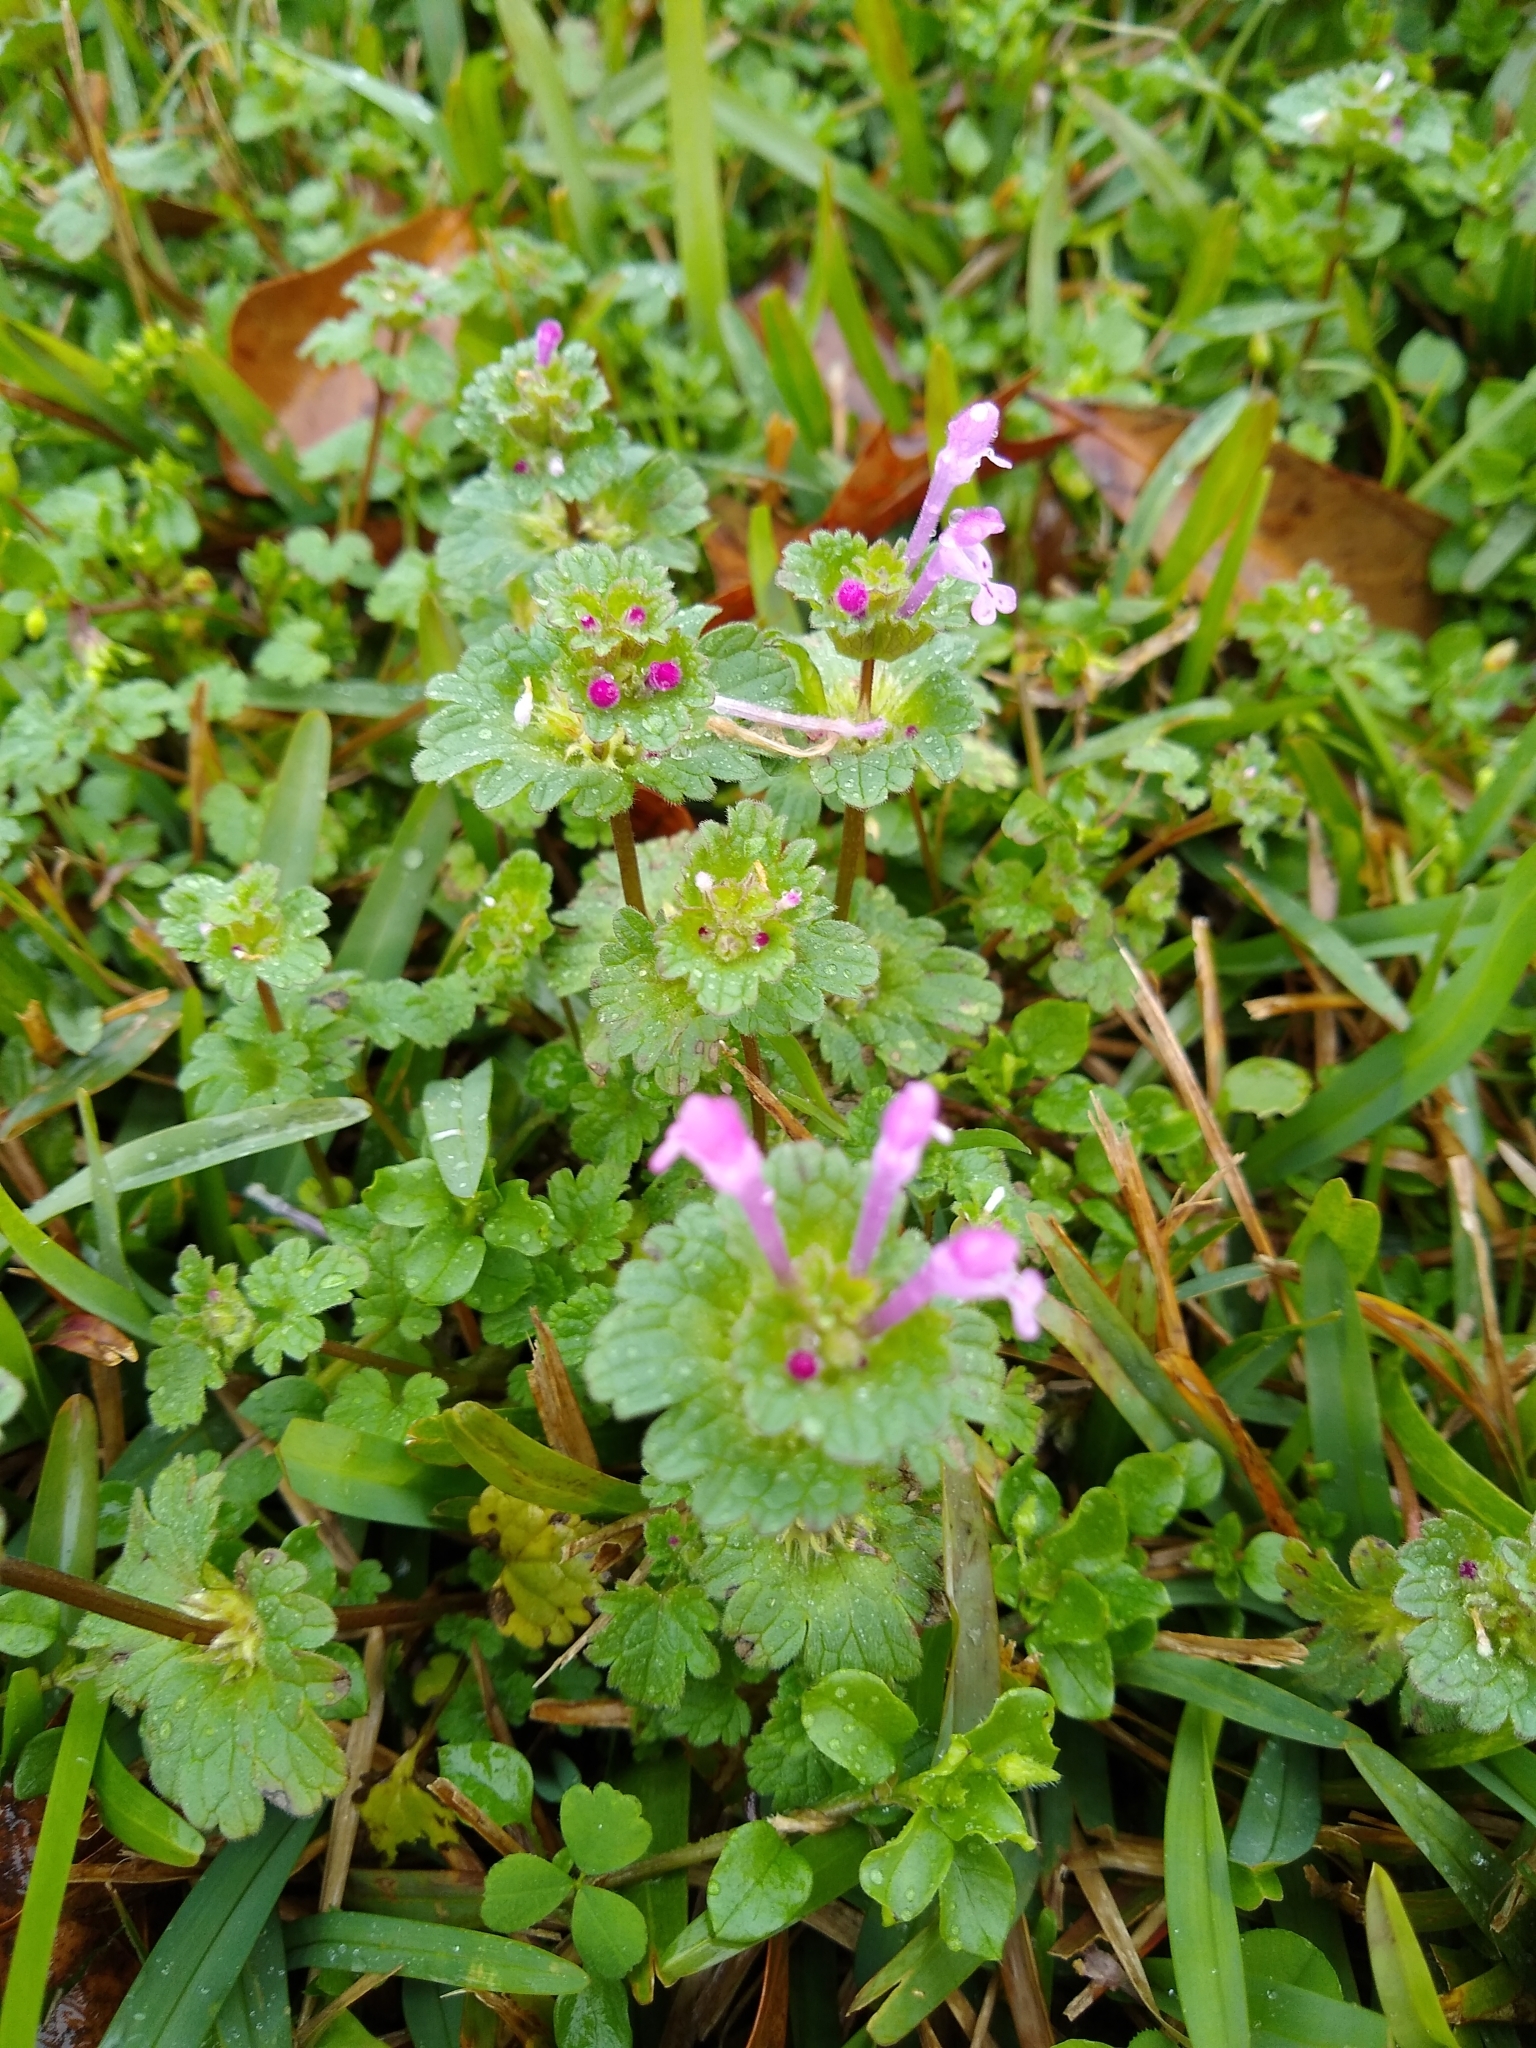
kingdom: Plantae
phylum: Tracheophyta
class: Magnoliopsida
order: Lamiales
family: Lamiaceae
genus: Lamium
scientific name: Lamium amplexicaule
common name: Henbit dead-nettle
